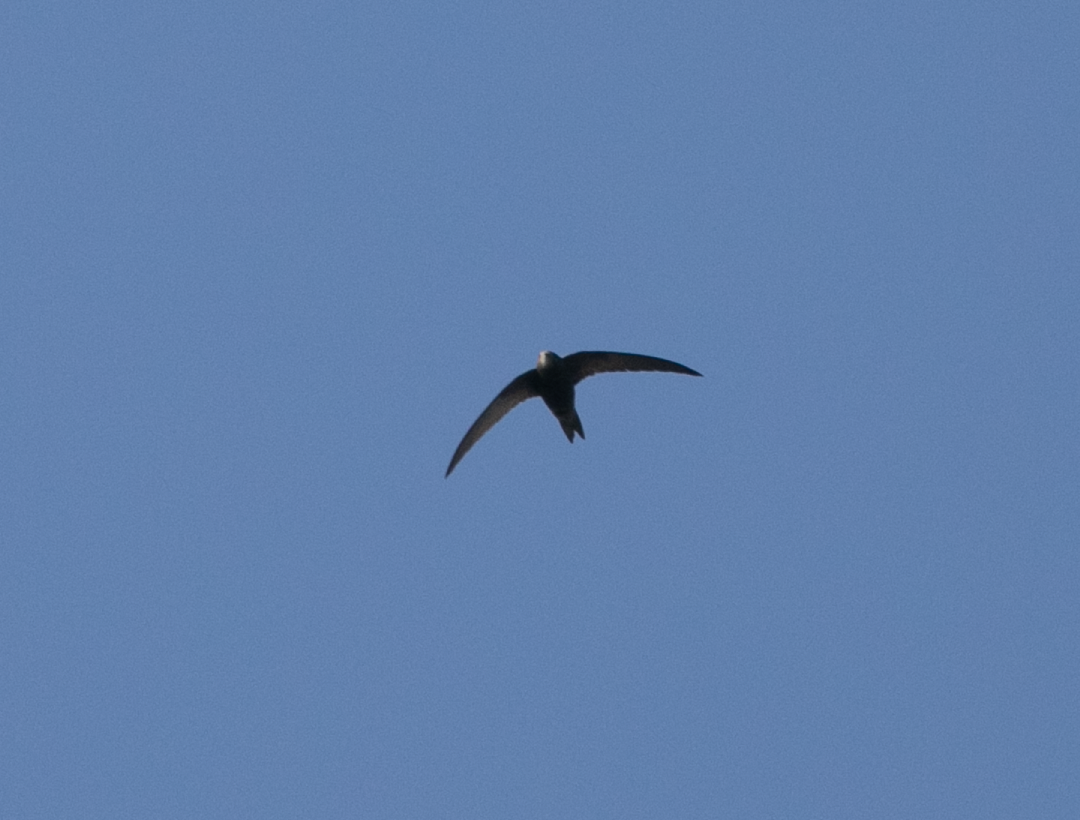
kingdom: Animalia
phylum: Chordata
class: Aves
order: Apodiformes
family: Apodidae
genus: Apus
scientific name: Apus apus
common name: Common swift
